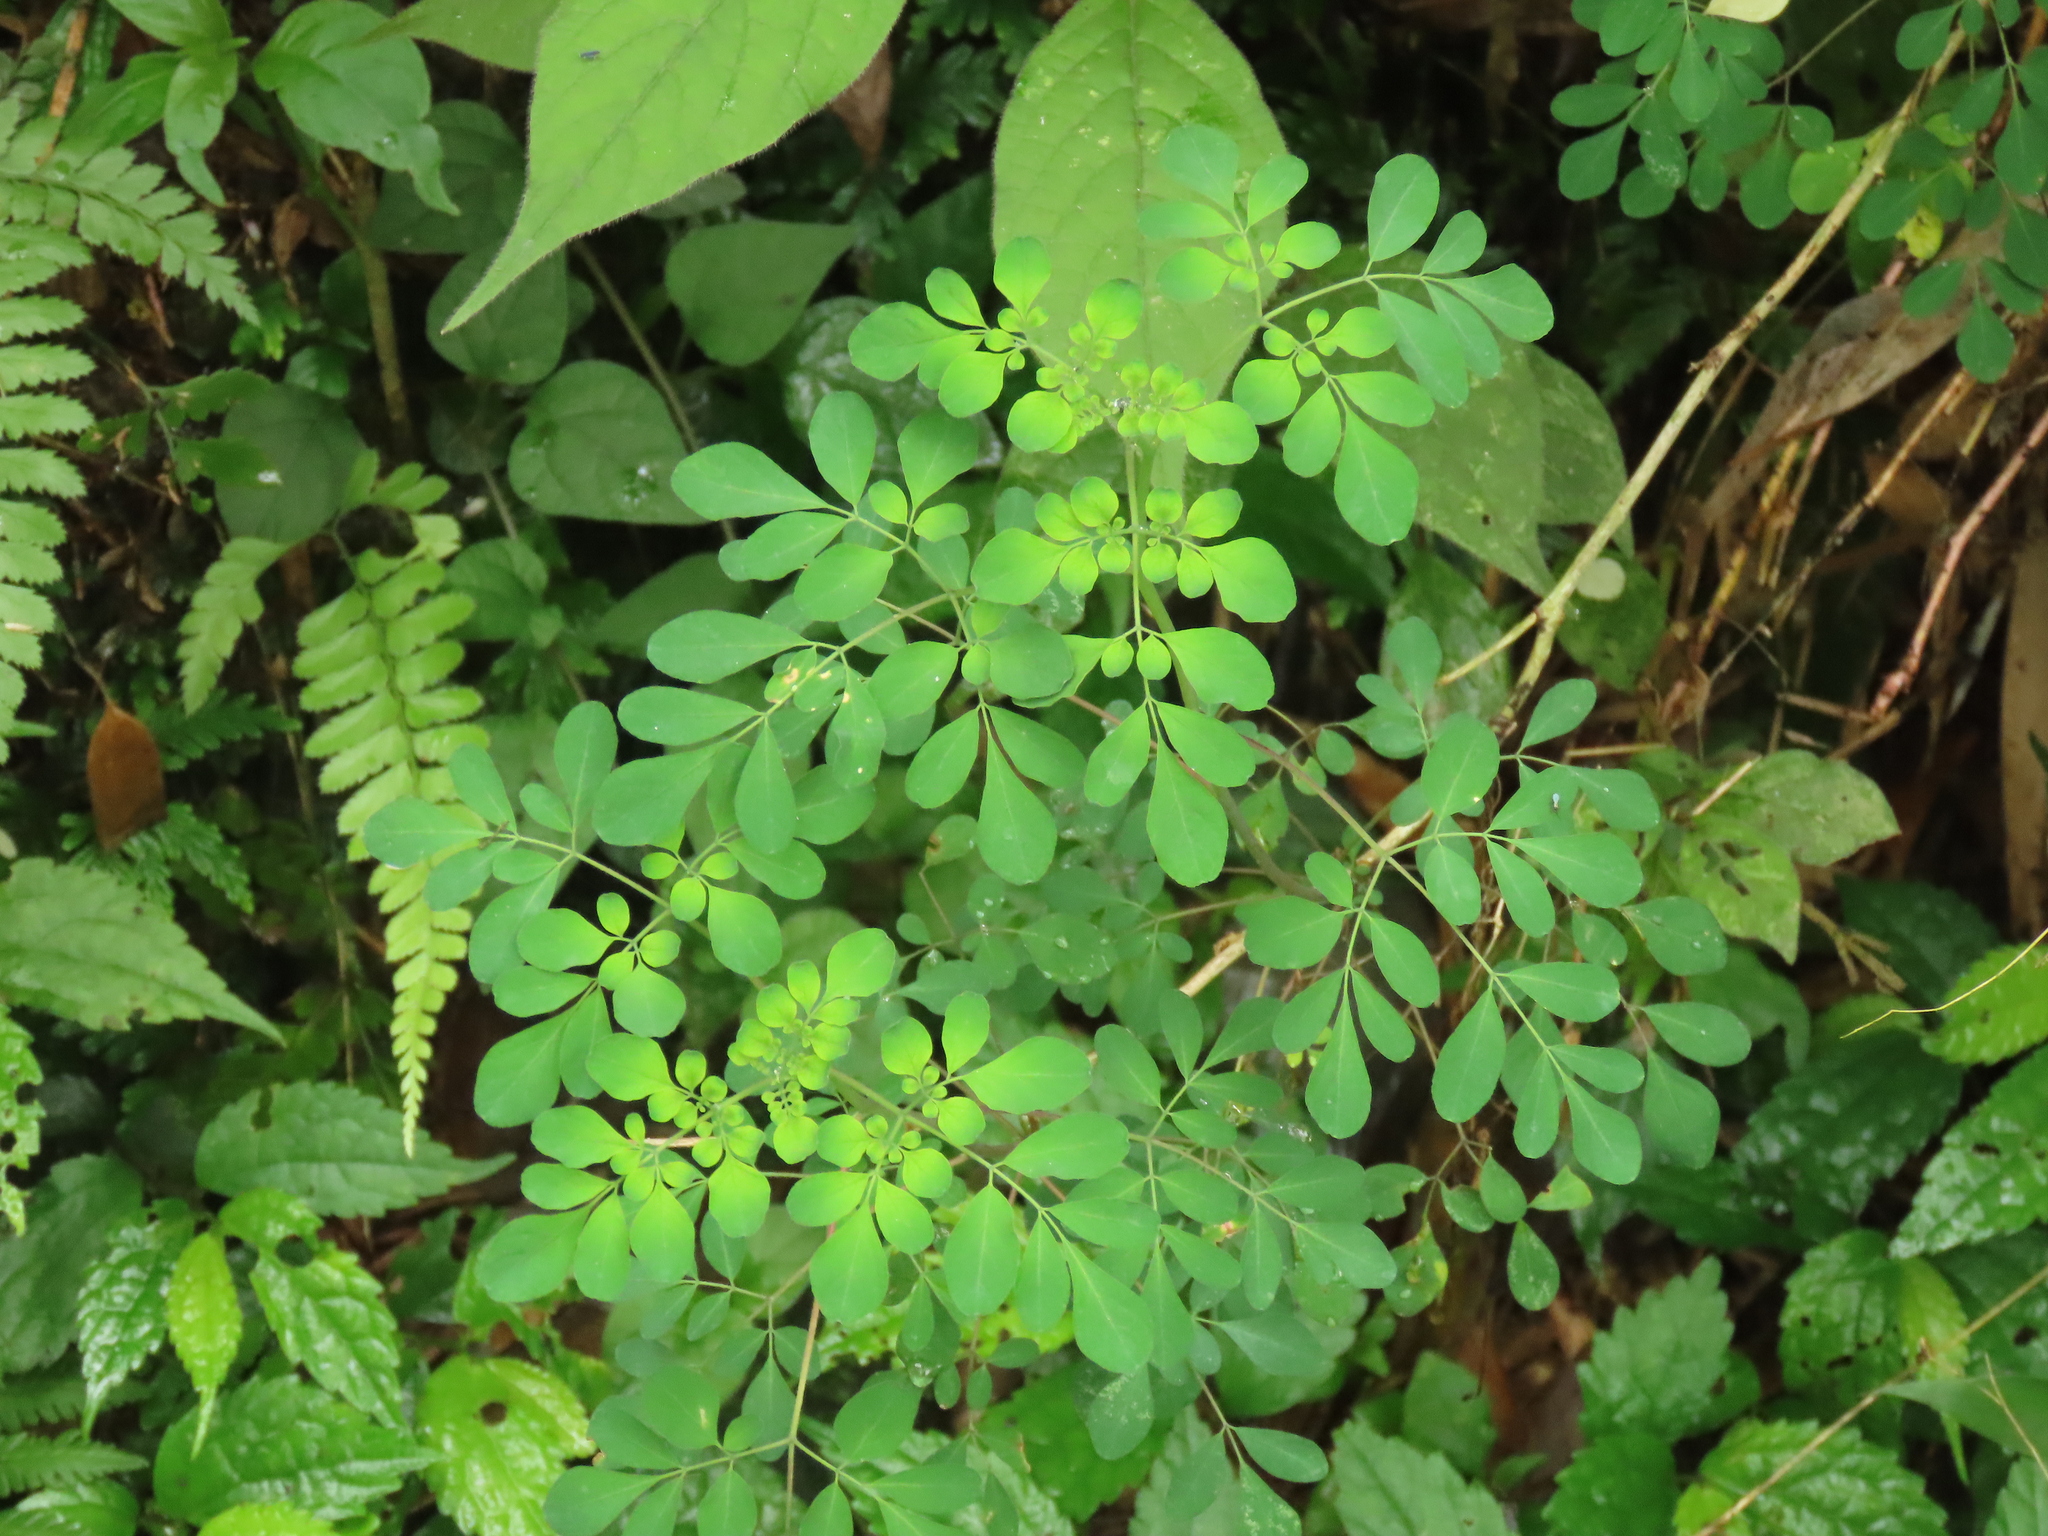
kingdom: Plantae
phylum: Tracheophyta
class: Magnoliopsida
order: Sapindales
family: Rutaceae
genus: Boenninghausenia
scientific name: Boenninghausenia albiflora
